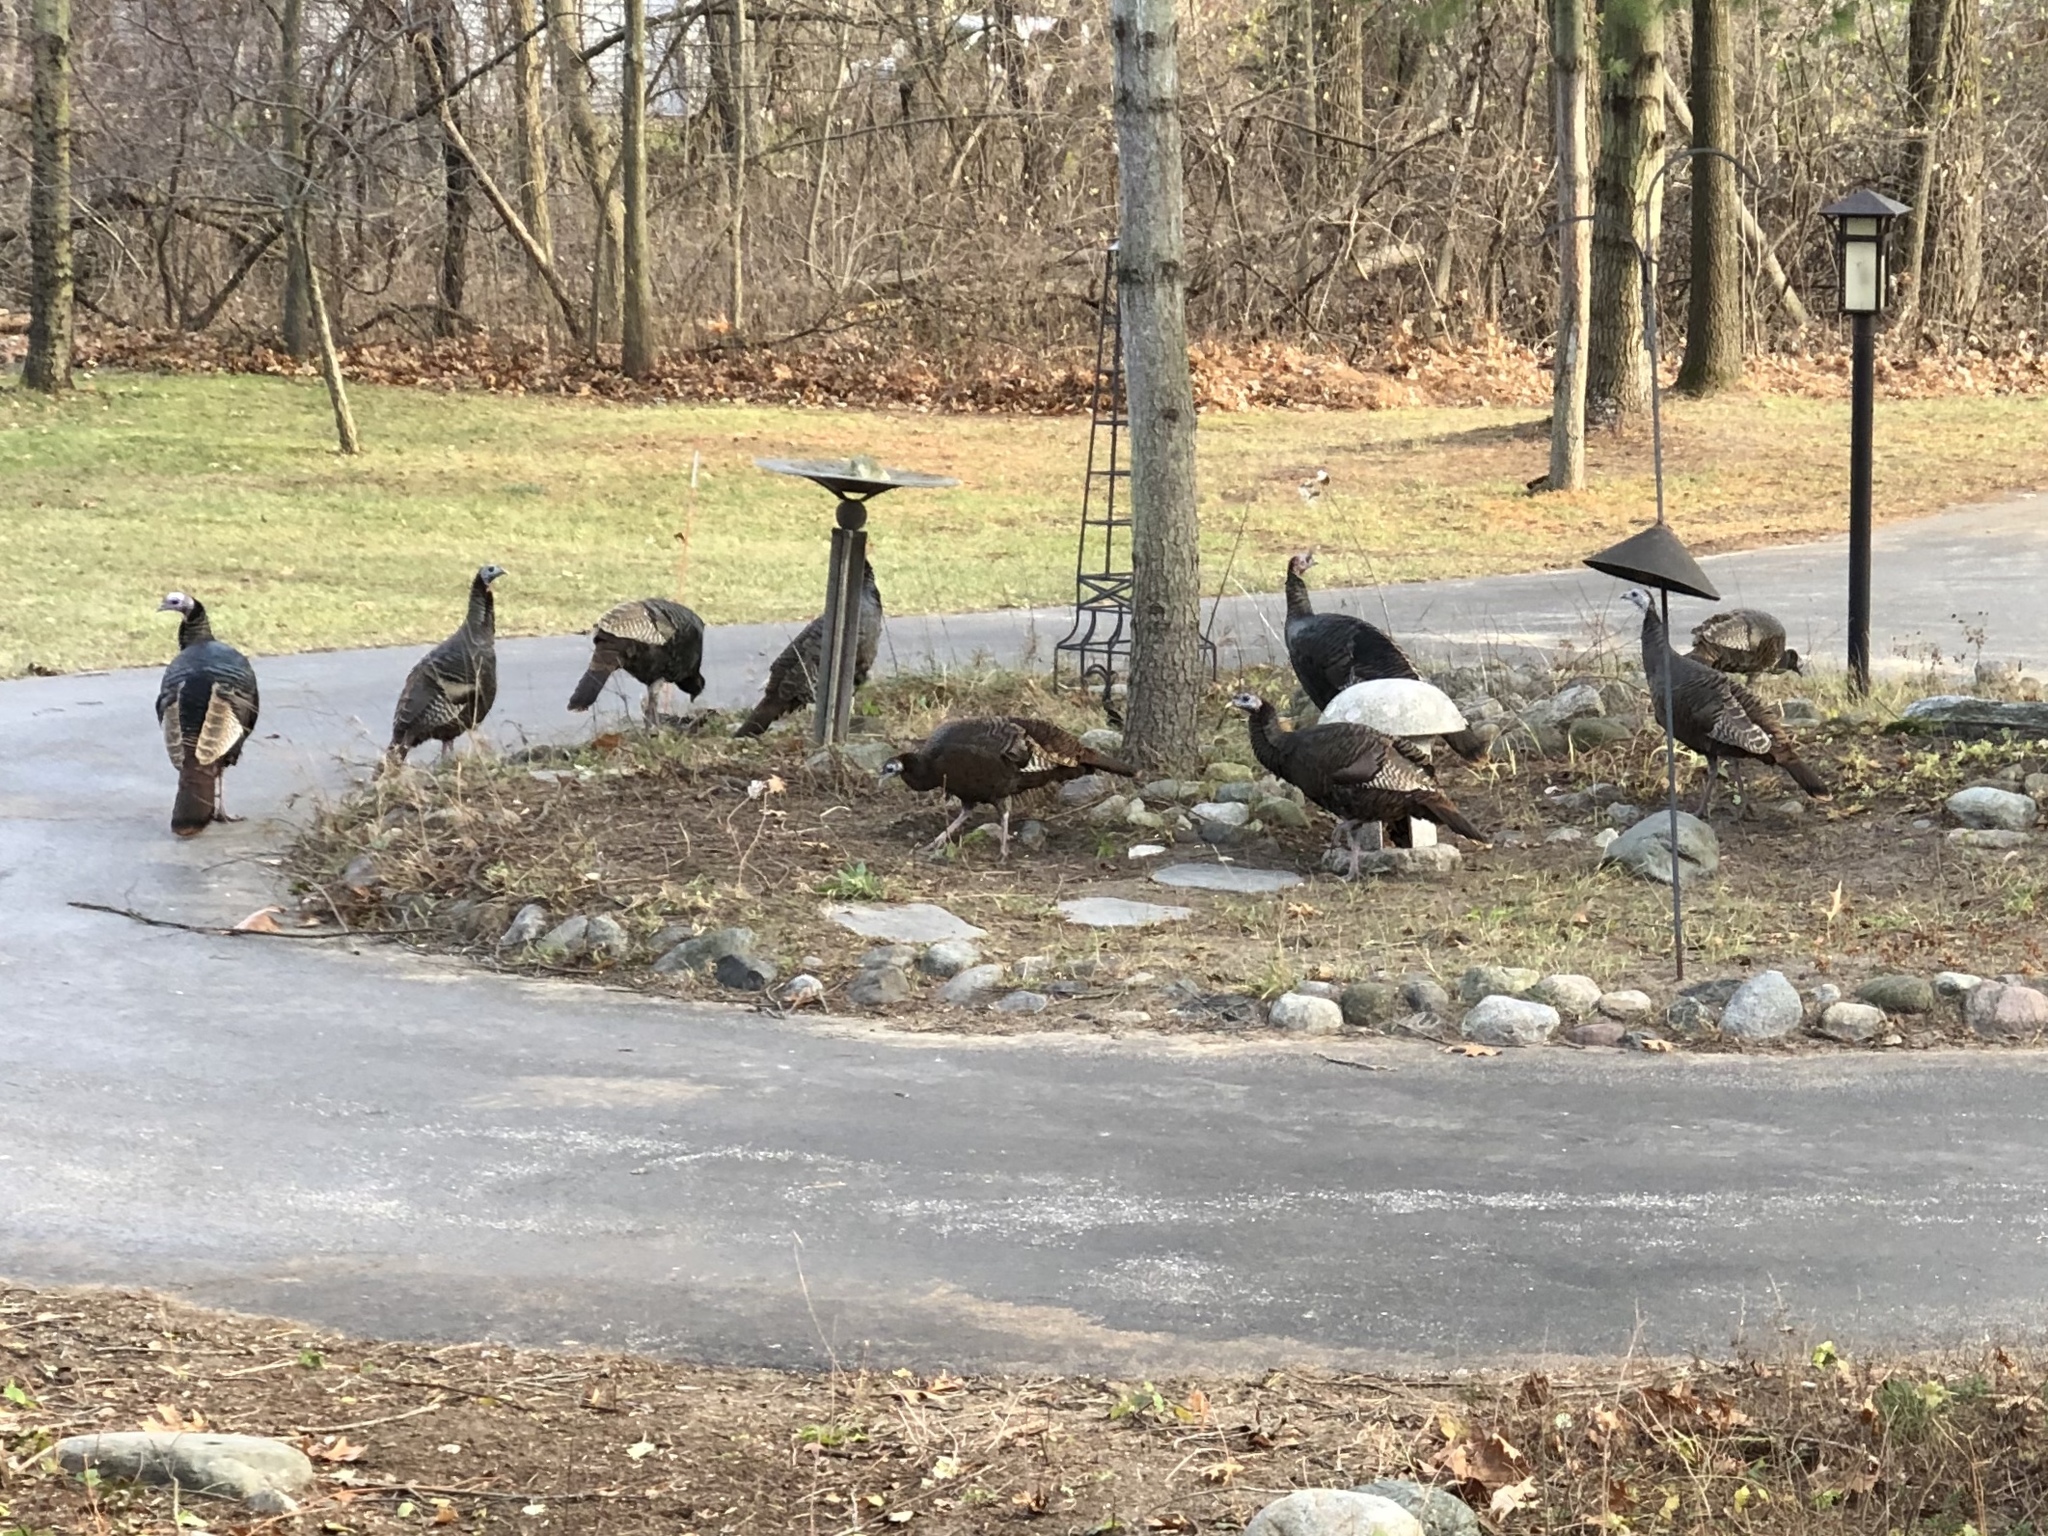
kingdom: Animalia
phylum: Chordata
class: Aves
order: Galliformes
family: Phasianidae
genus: Meleagris
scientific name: Meleagris gallopavo
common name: Wild turkey
